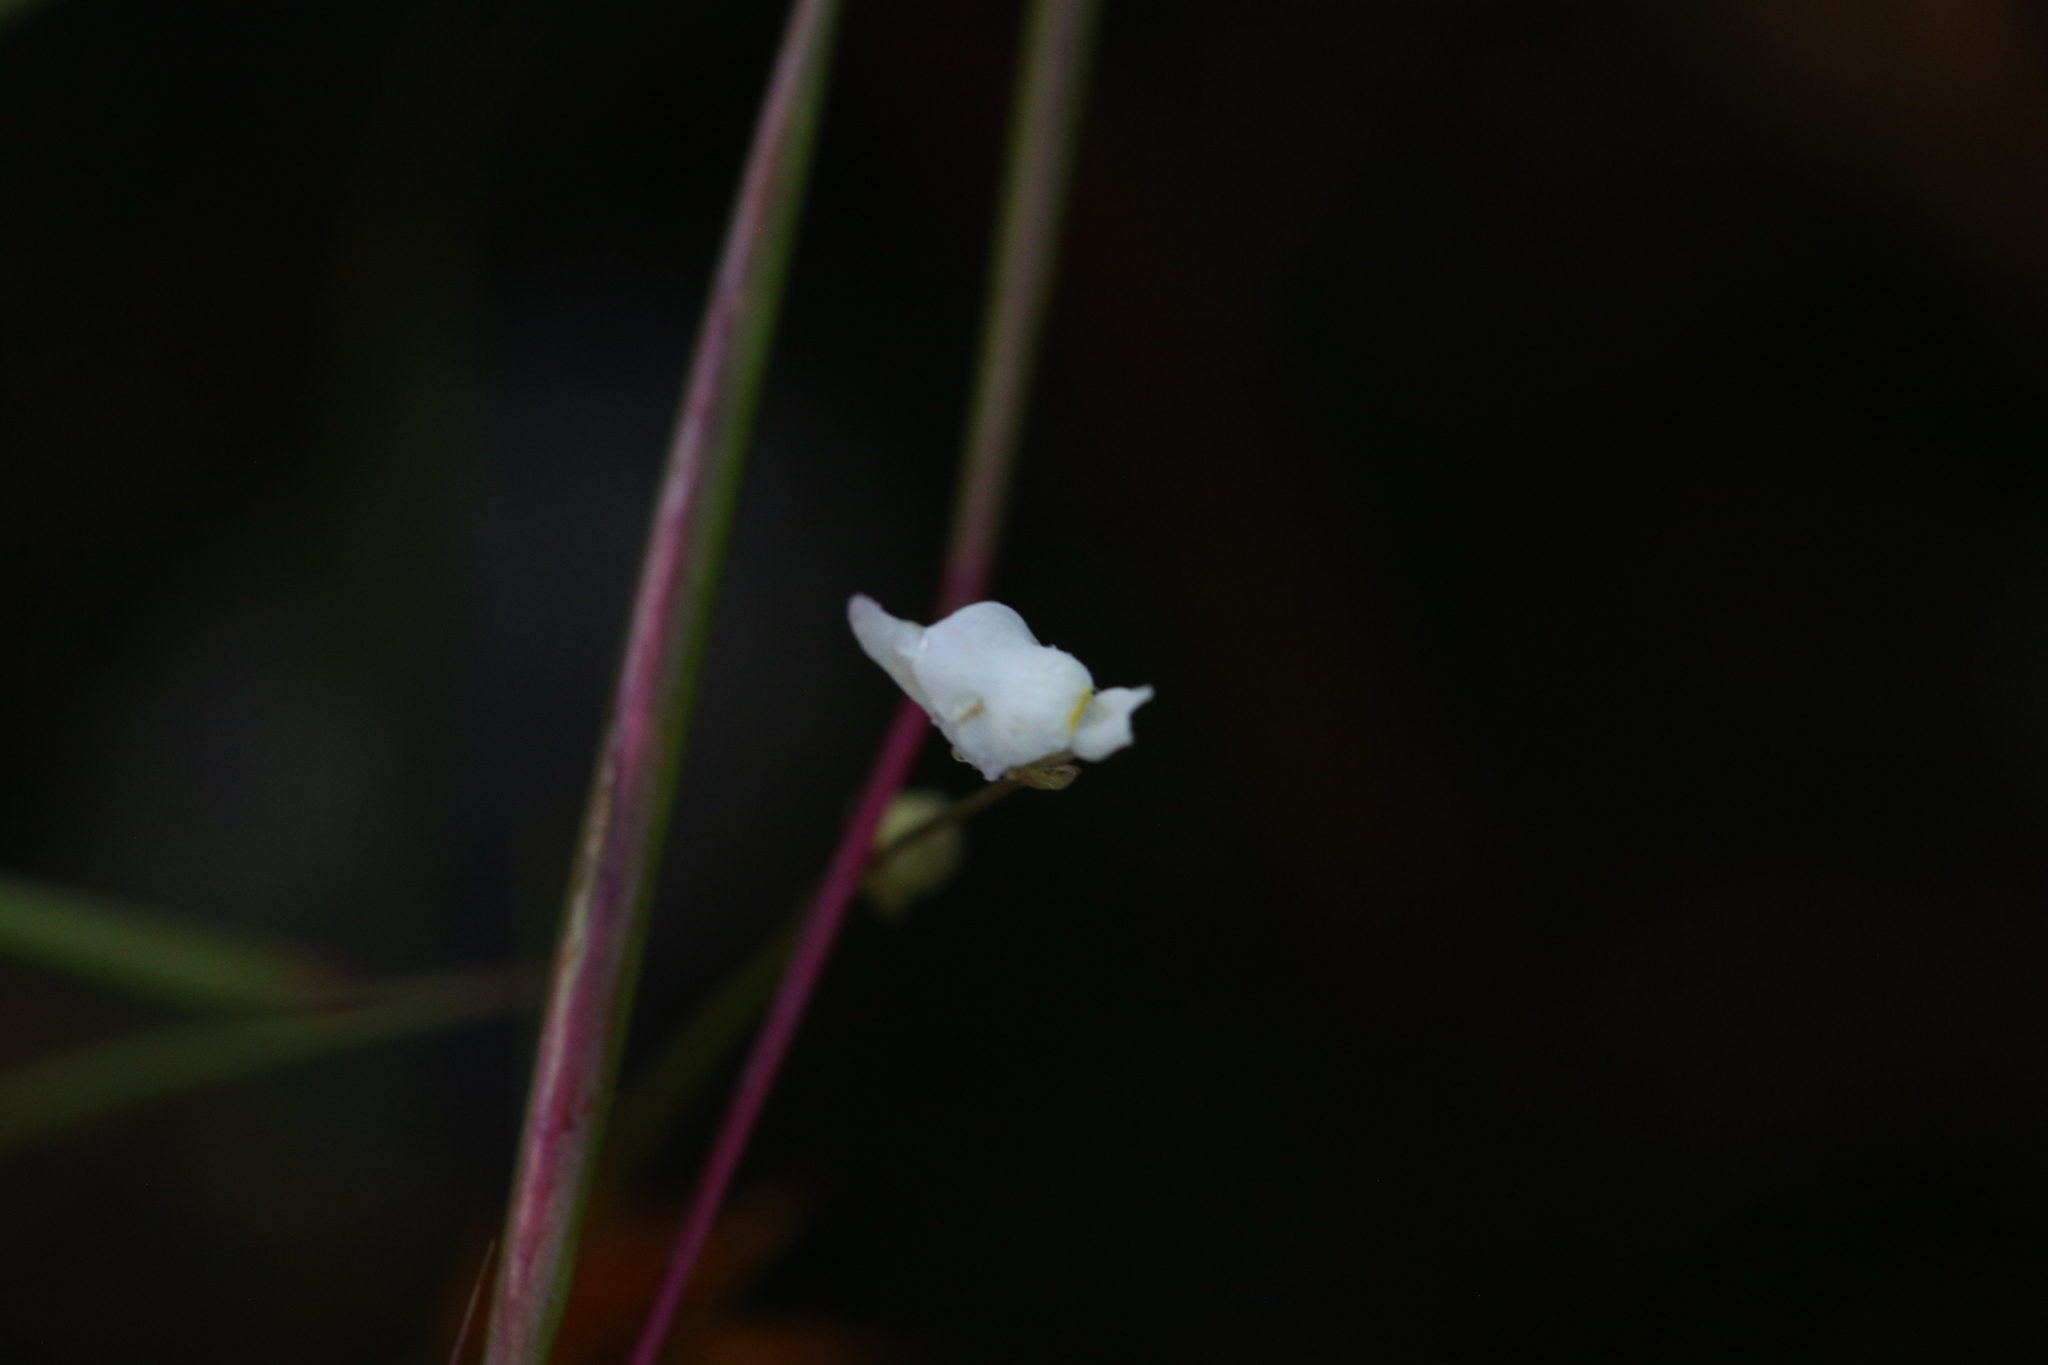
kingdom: Plantae
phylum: Tracheophyta
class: Magnoliopsida
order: Lamiales
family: Lentibulariaceae
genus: Utricularia
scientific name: Utricularia caerulea
